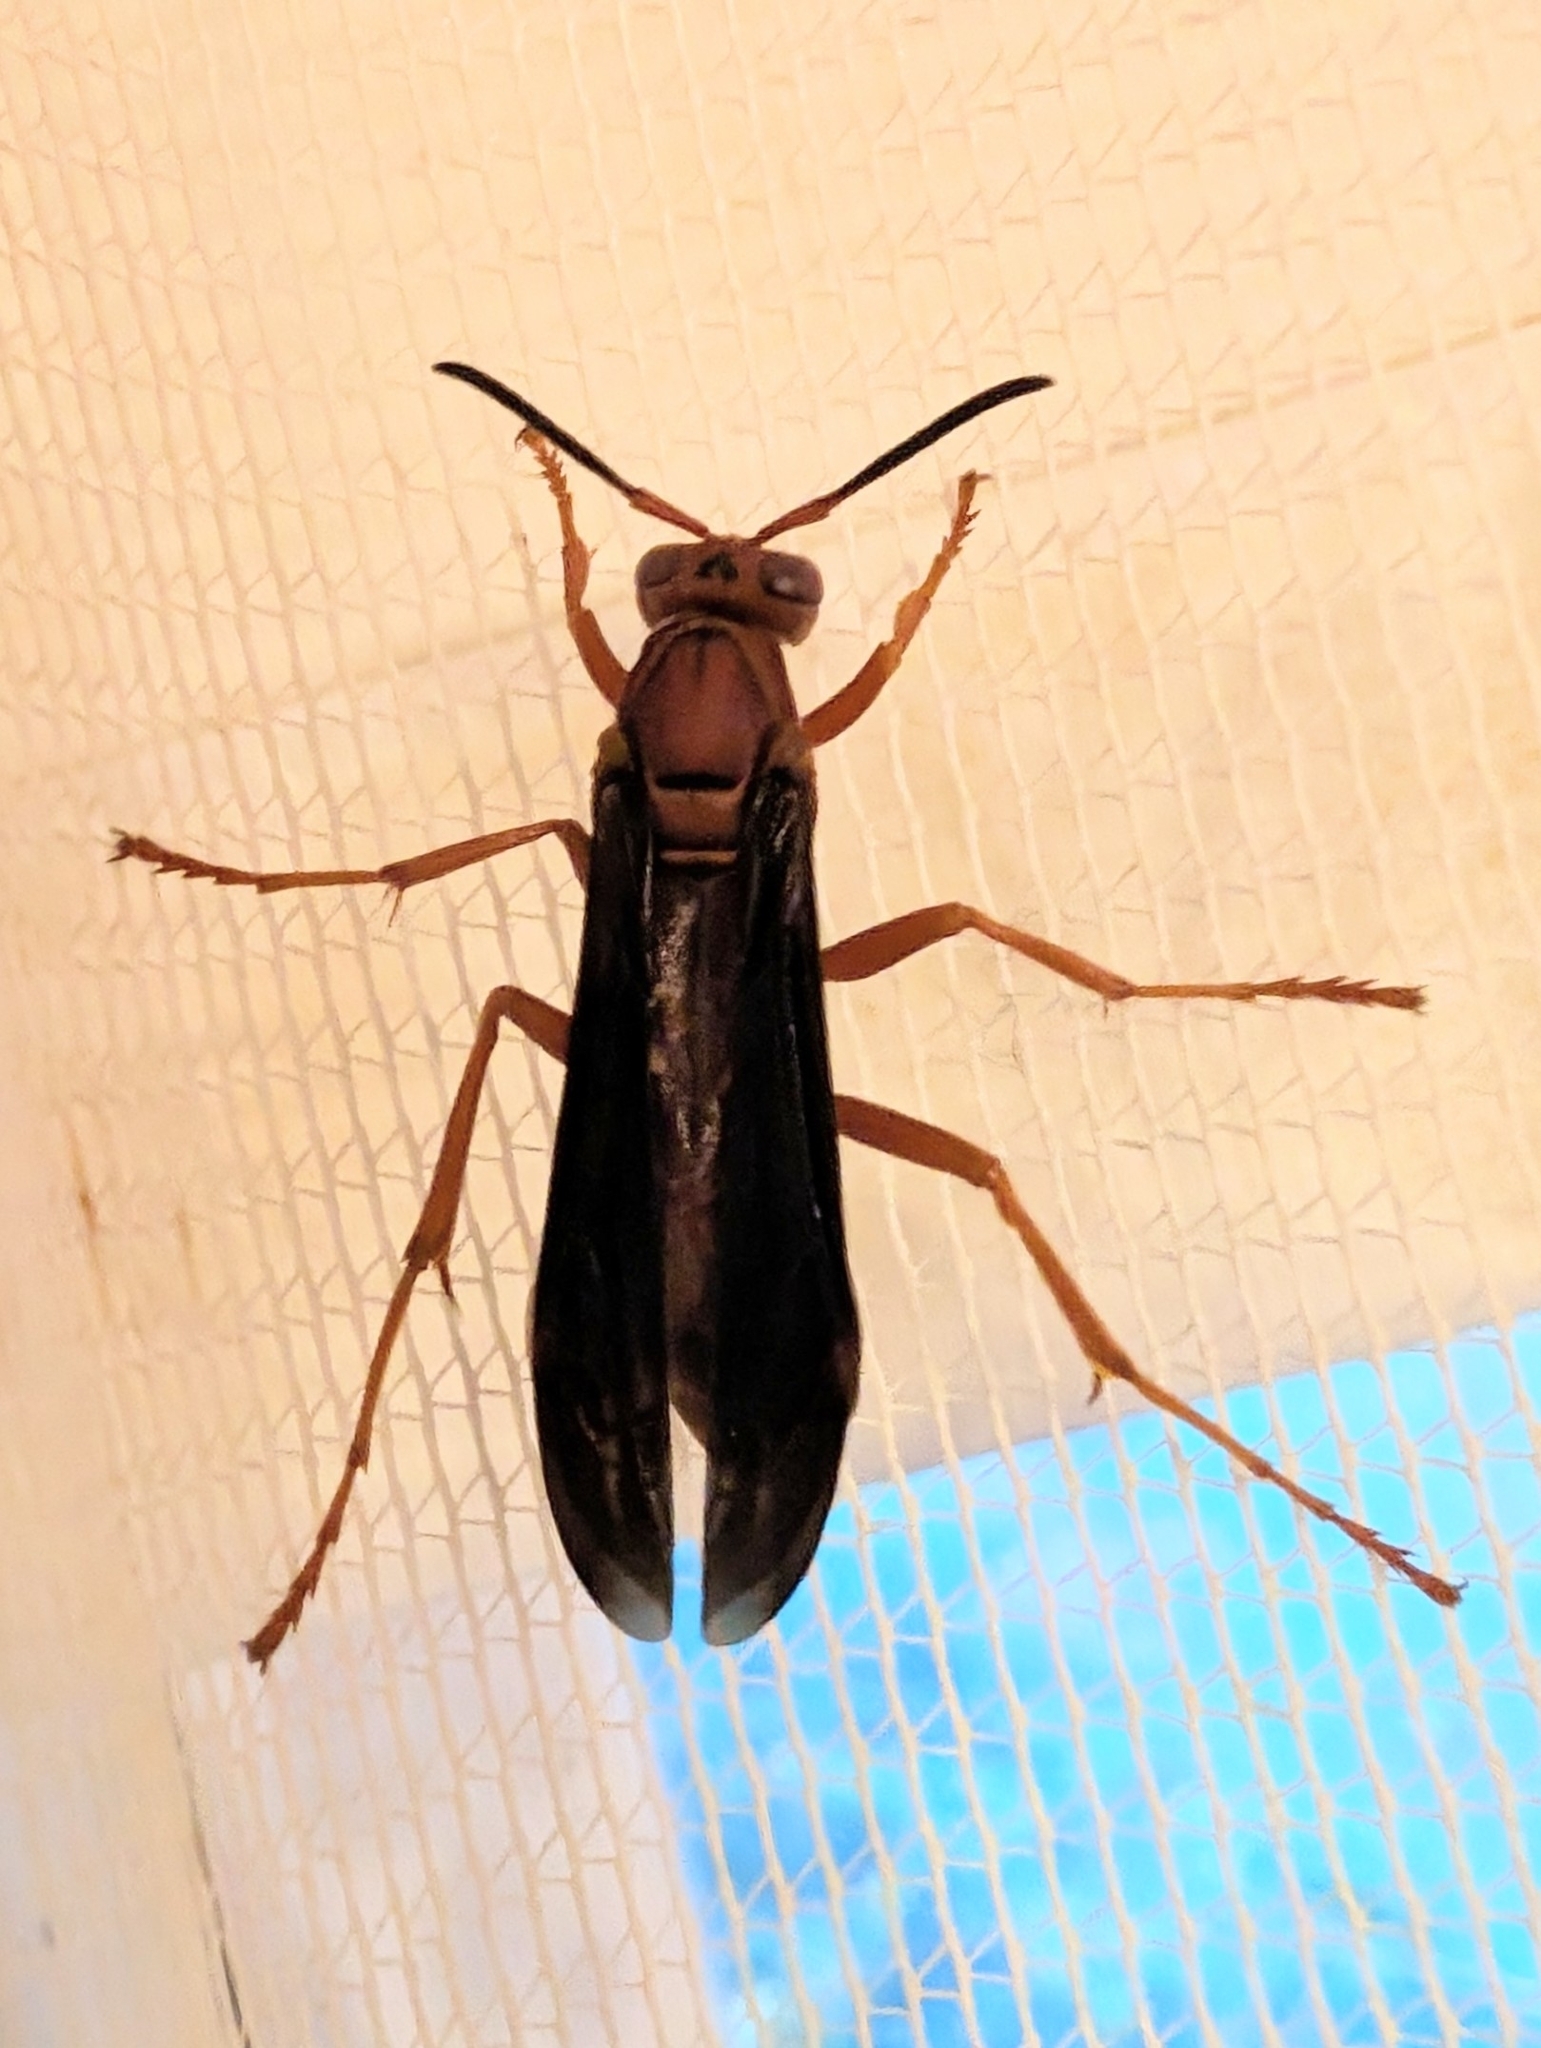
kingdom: Animalia
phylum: Arthropoda
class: Insecta
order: Hymenoptera
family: Eumenidae
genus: Polistes
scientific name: Polistes metricus
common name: Metric paper wasp
